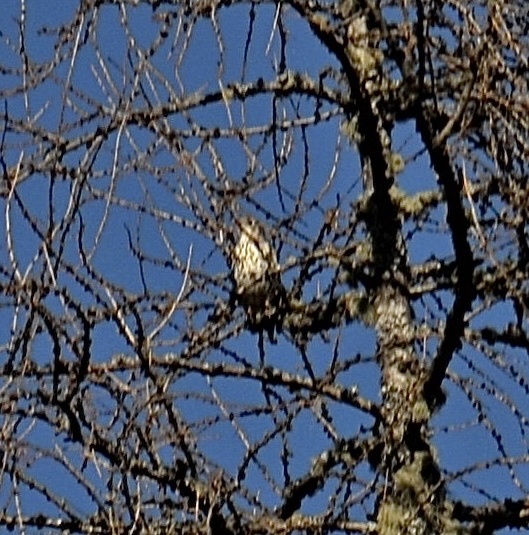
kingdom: Animalia
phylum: Chordata
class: Aves
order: Passeriformes
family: Turdidae
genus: Turdus
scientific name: Turdus viscivorus
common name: Mistle thrush
